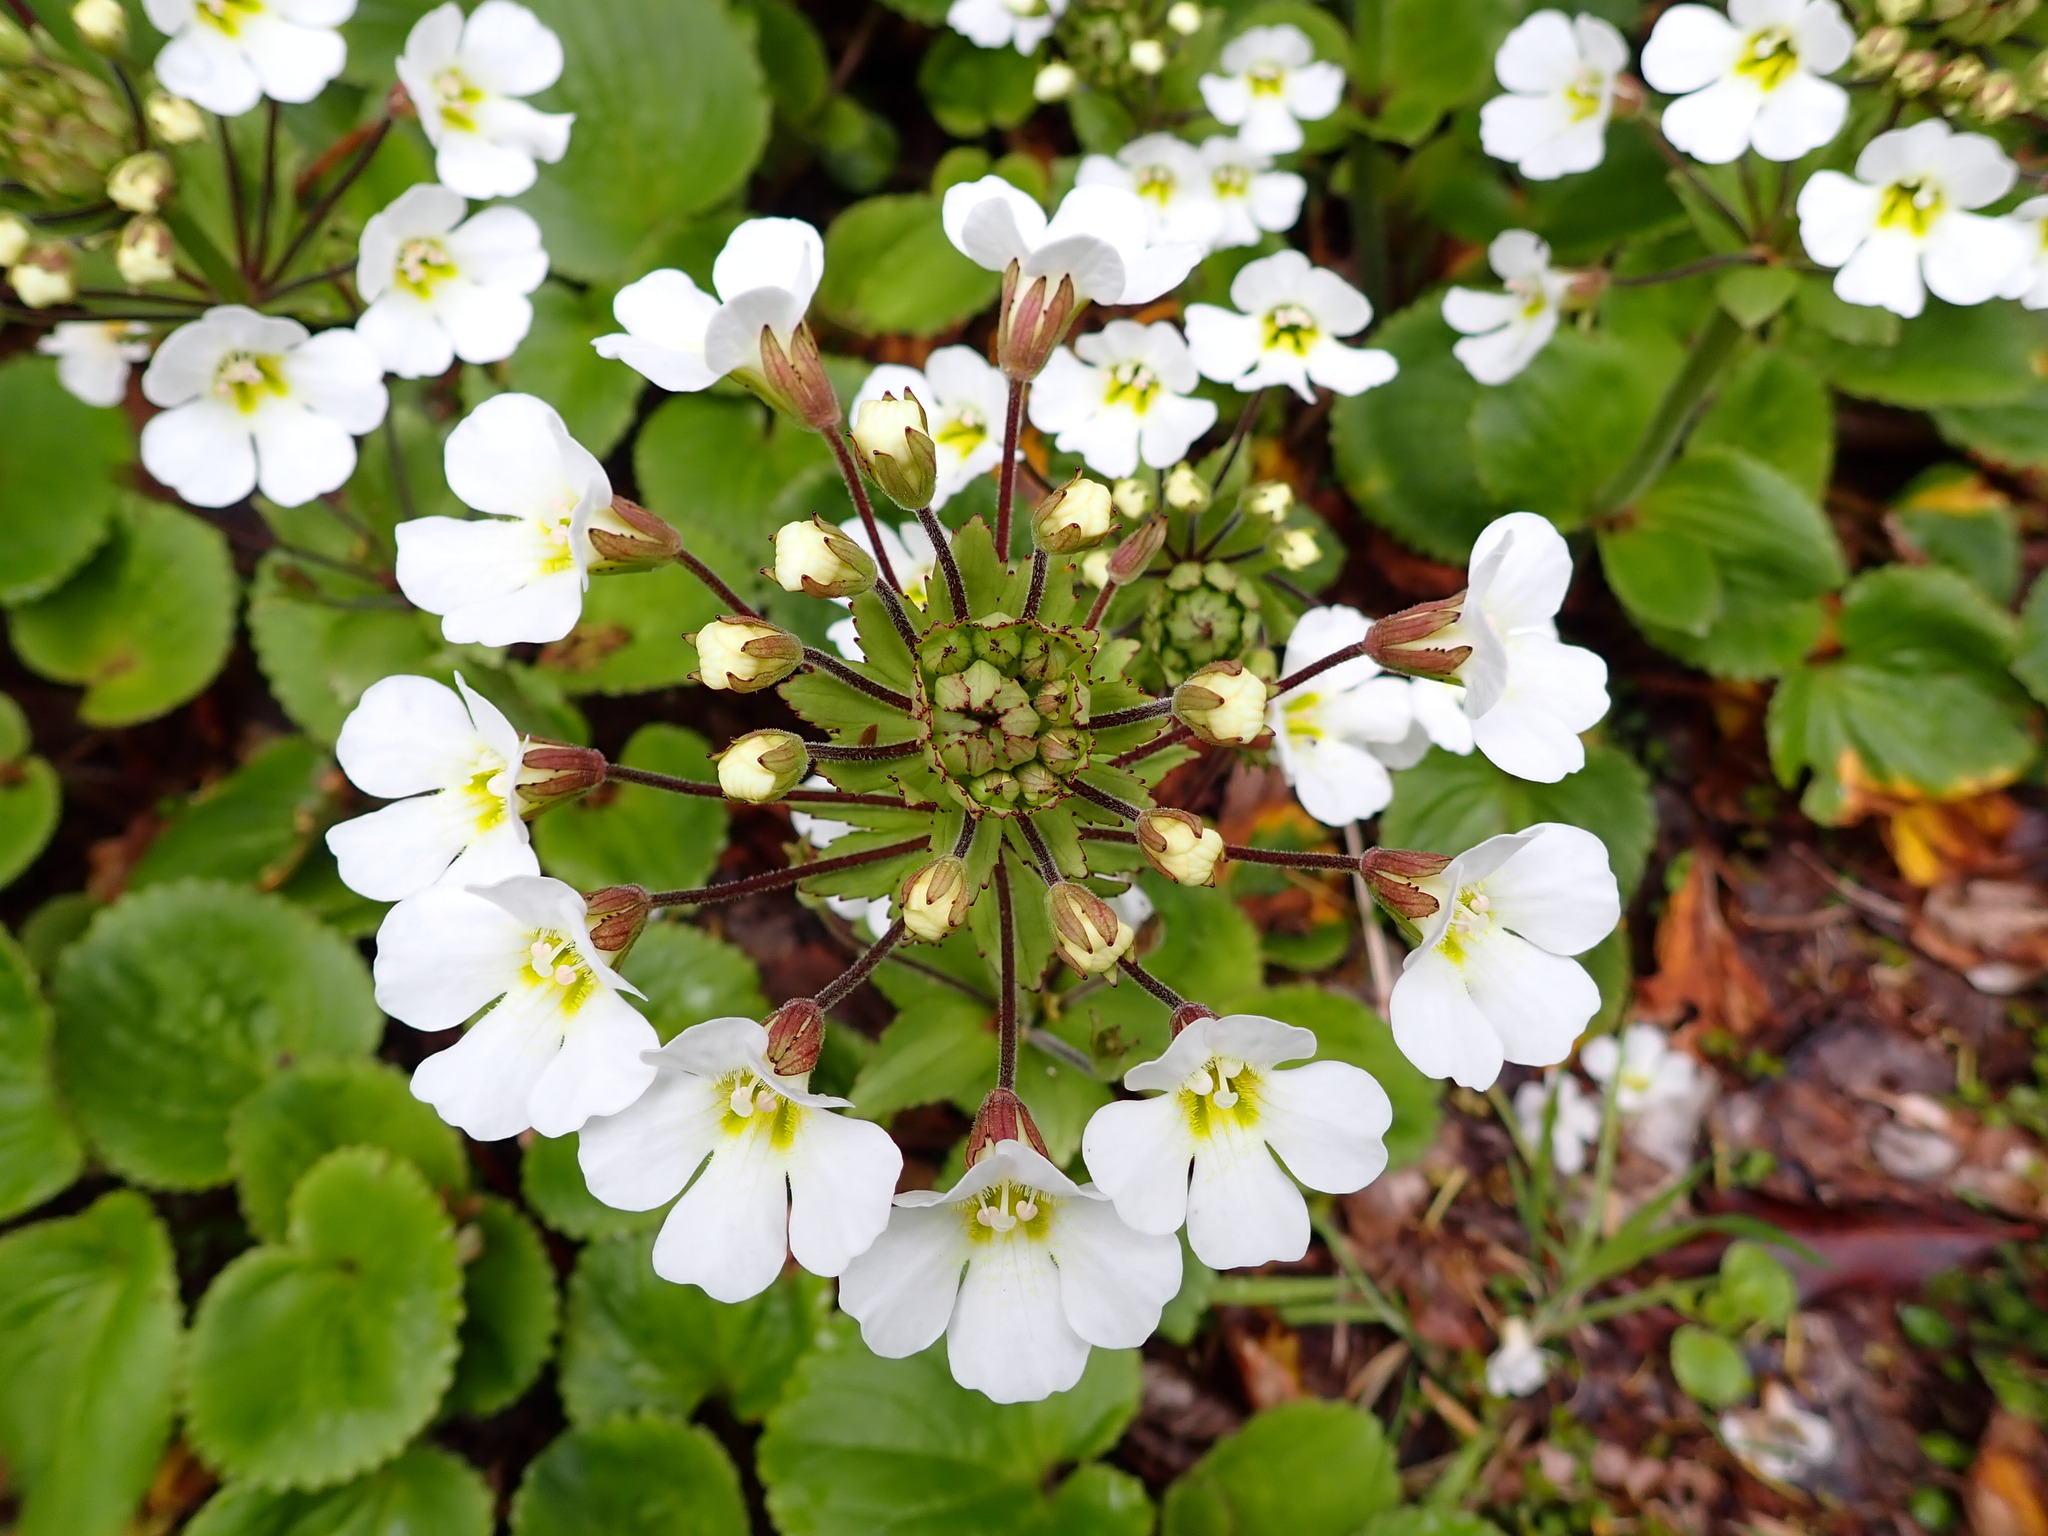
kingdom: Plantae
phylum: Tracheophyta
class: Magnoliopsida
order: Lamiales
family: Plantaginaceae
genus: Ourisia
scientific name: Ourisia macrophylla
